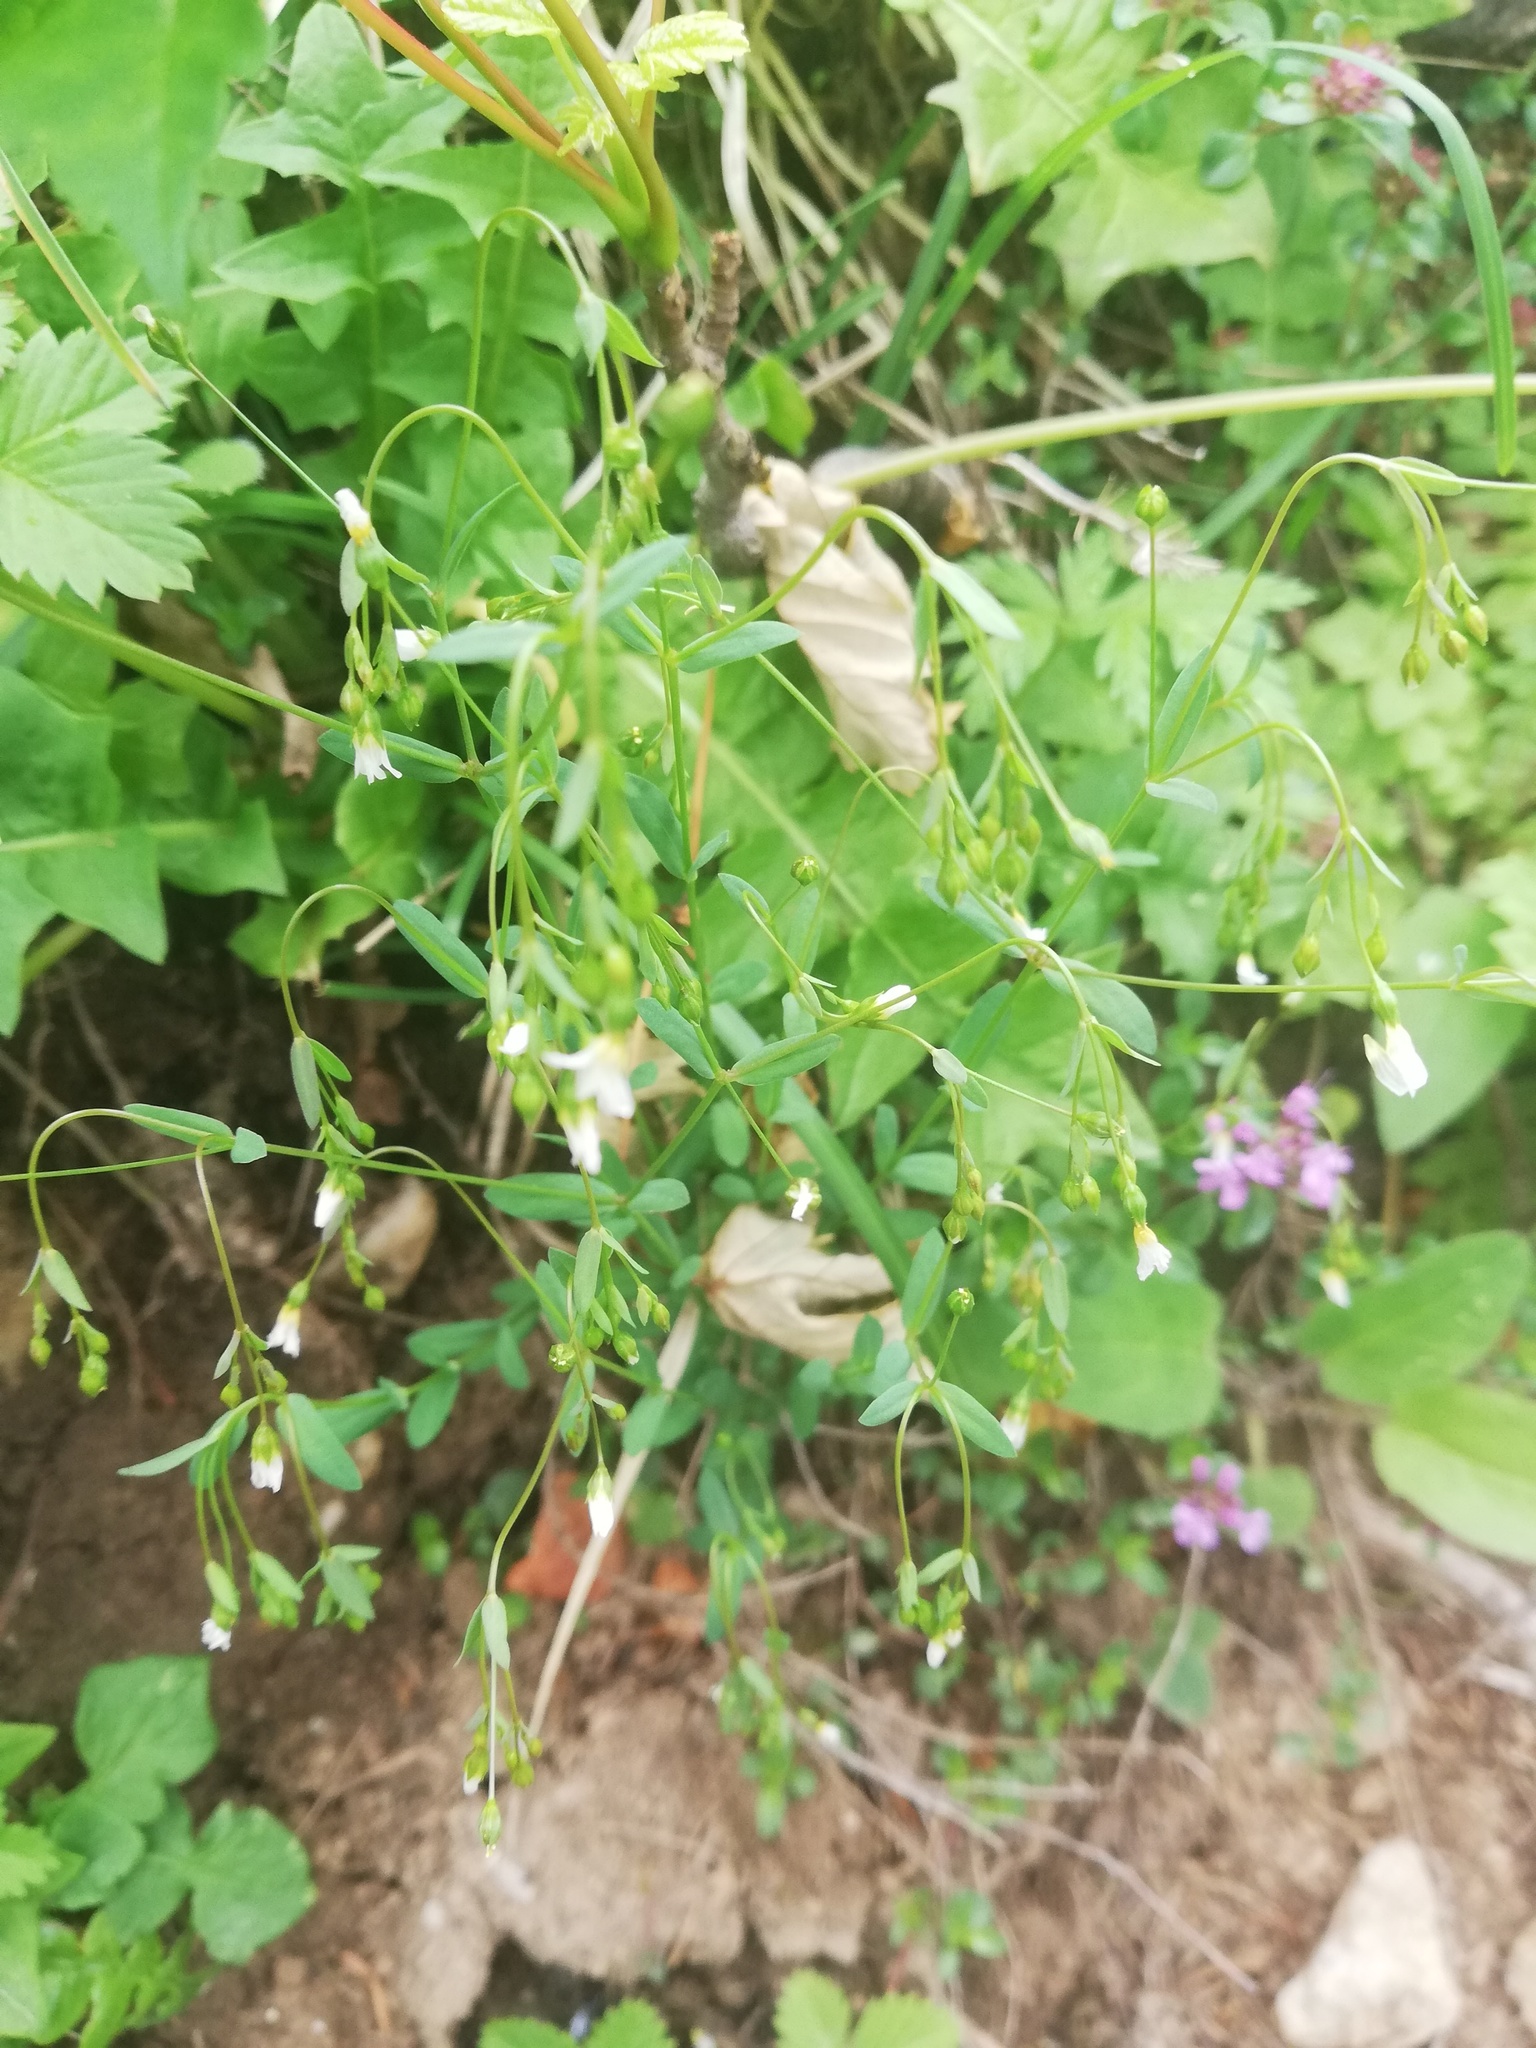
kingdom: Plantae
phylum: Tracheophyta
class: Magnoliopsida
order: Malpighiales
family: Linaceae
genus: Linum
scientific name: Linum catharticum
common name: Fairy flax
